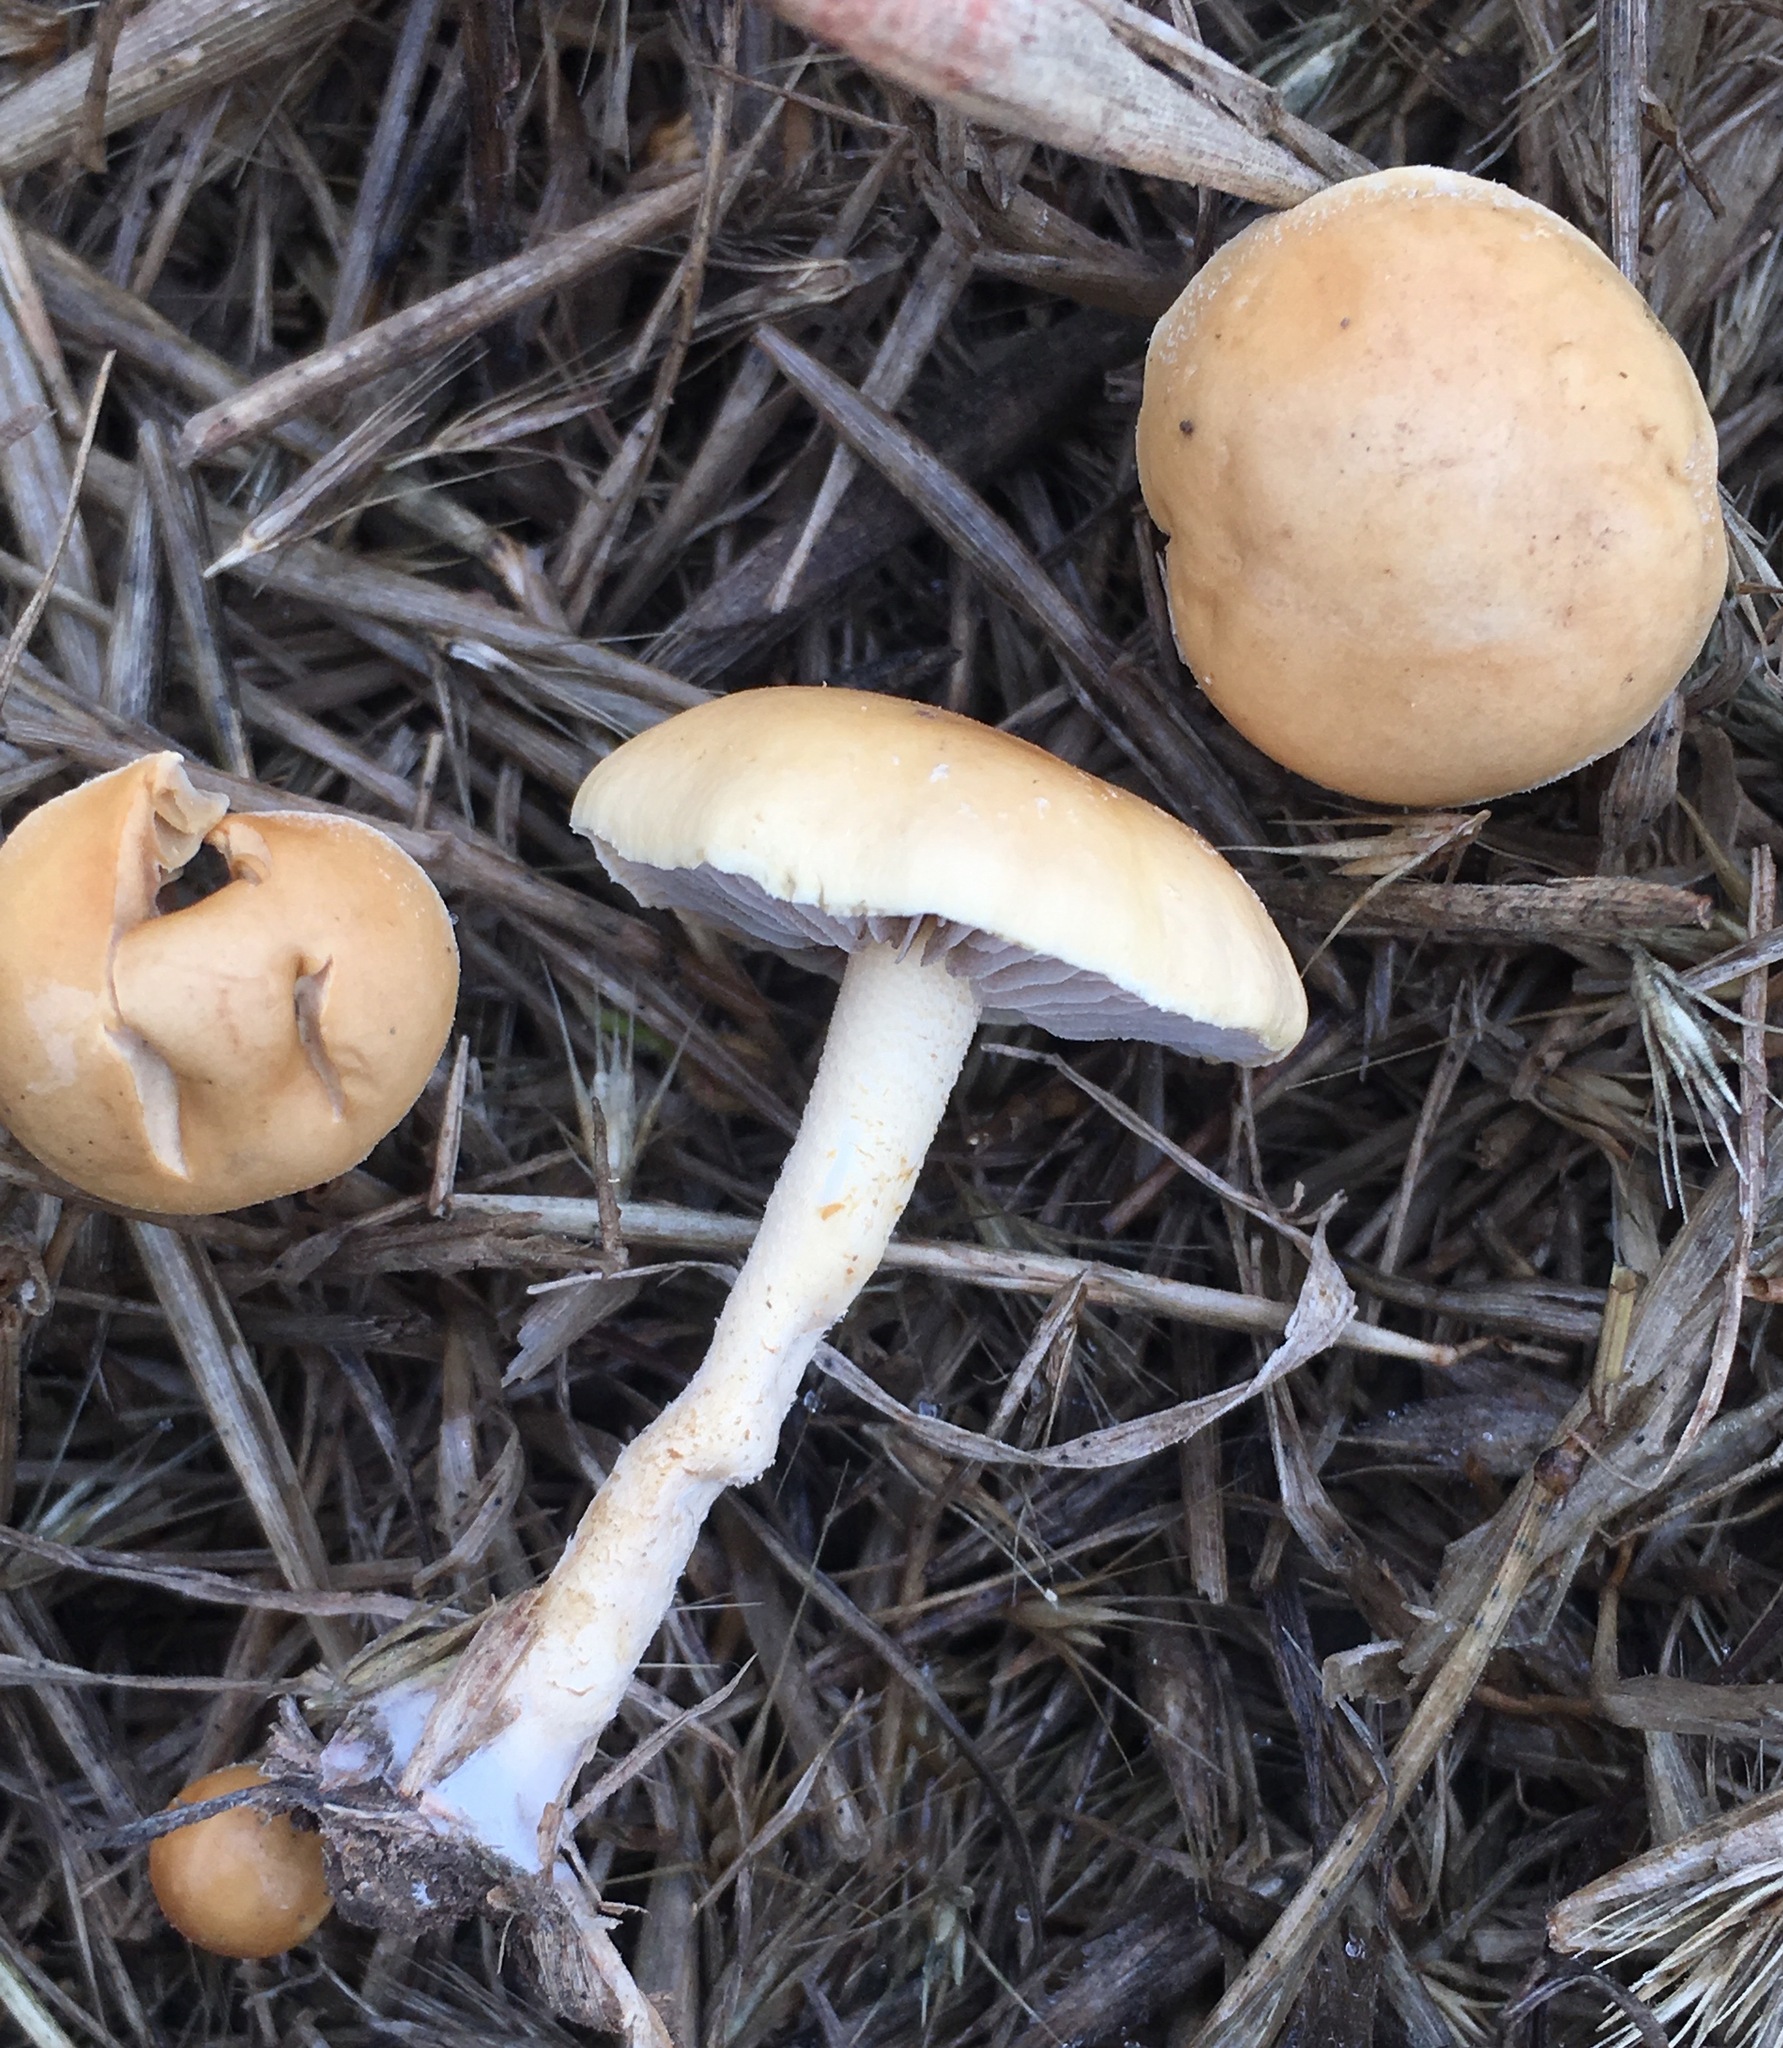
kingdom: Fungi
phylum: Basidiomycota
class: Agaricomycetes
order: Agaricales
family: Strophariaceae
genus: Agrocybe
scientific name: Agrocybe pediades
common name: Common fieldcap
